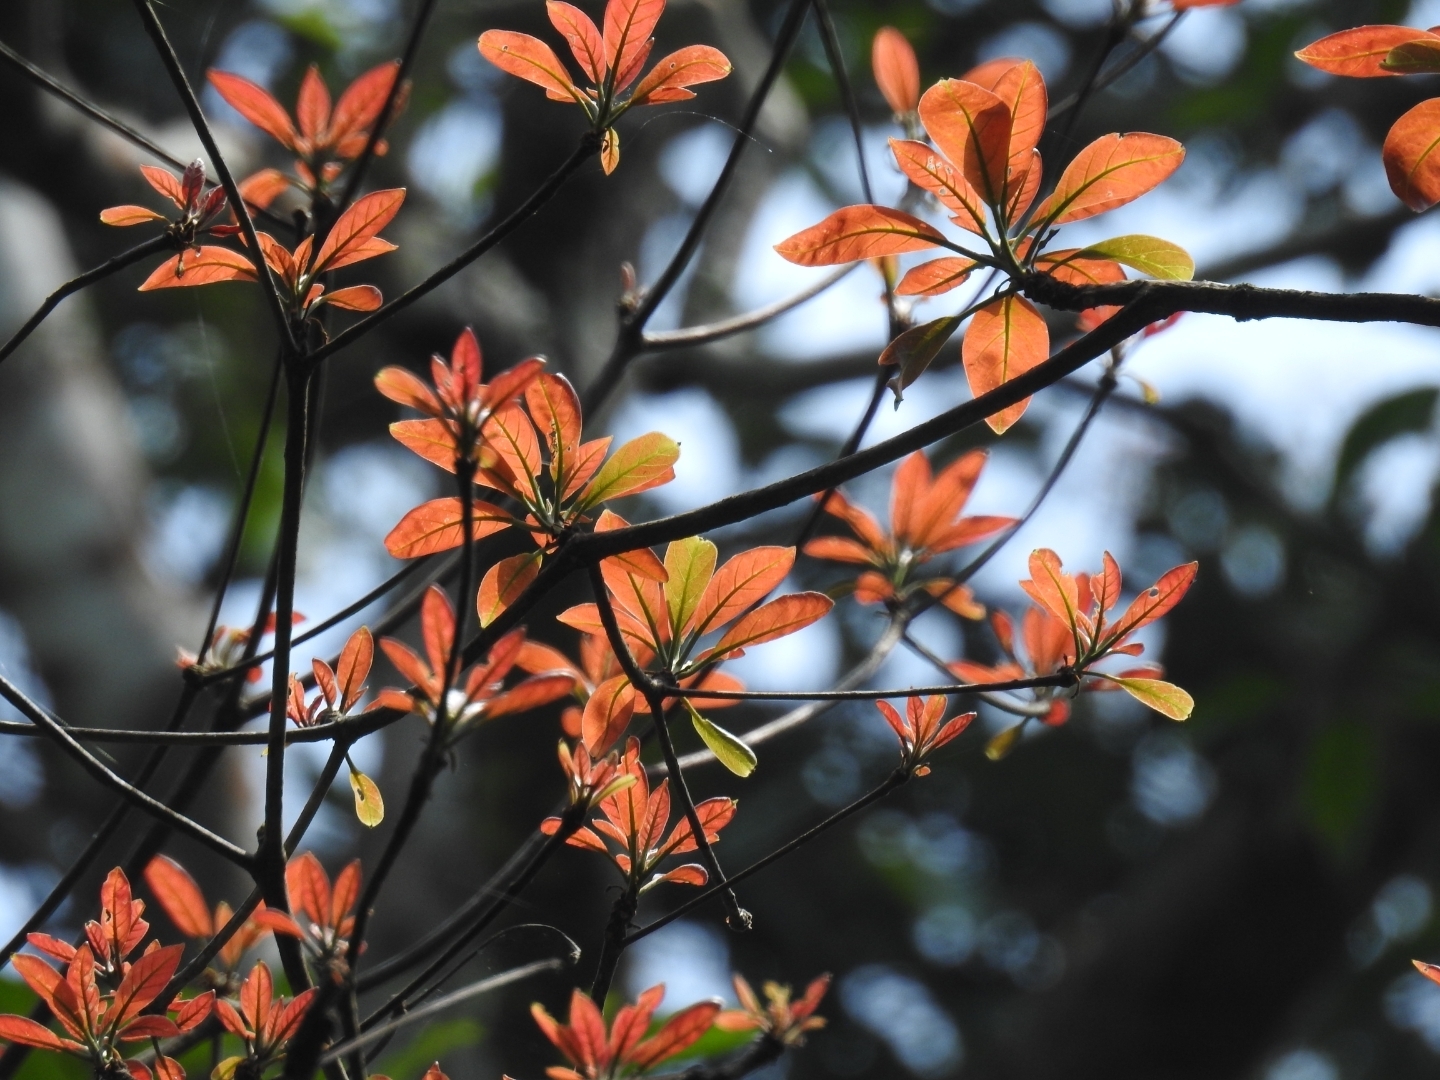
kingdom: Plantae
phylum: Tracheophyta
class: Magnoliopsida
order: Myrtales
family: Combretaceae
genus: Terminalia
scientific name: Terminalia bellirica
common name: Beleric myrobalan
